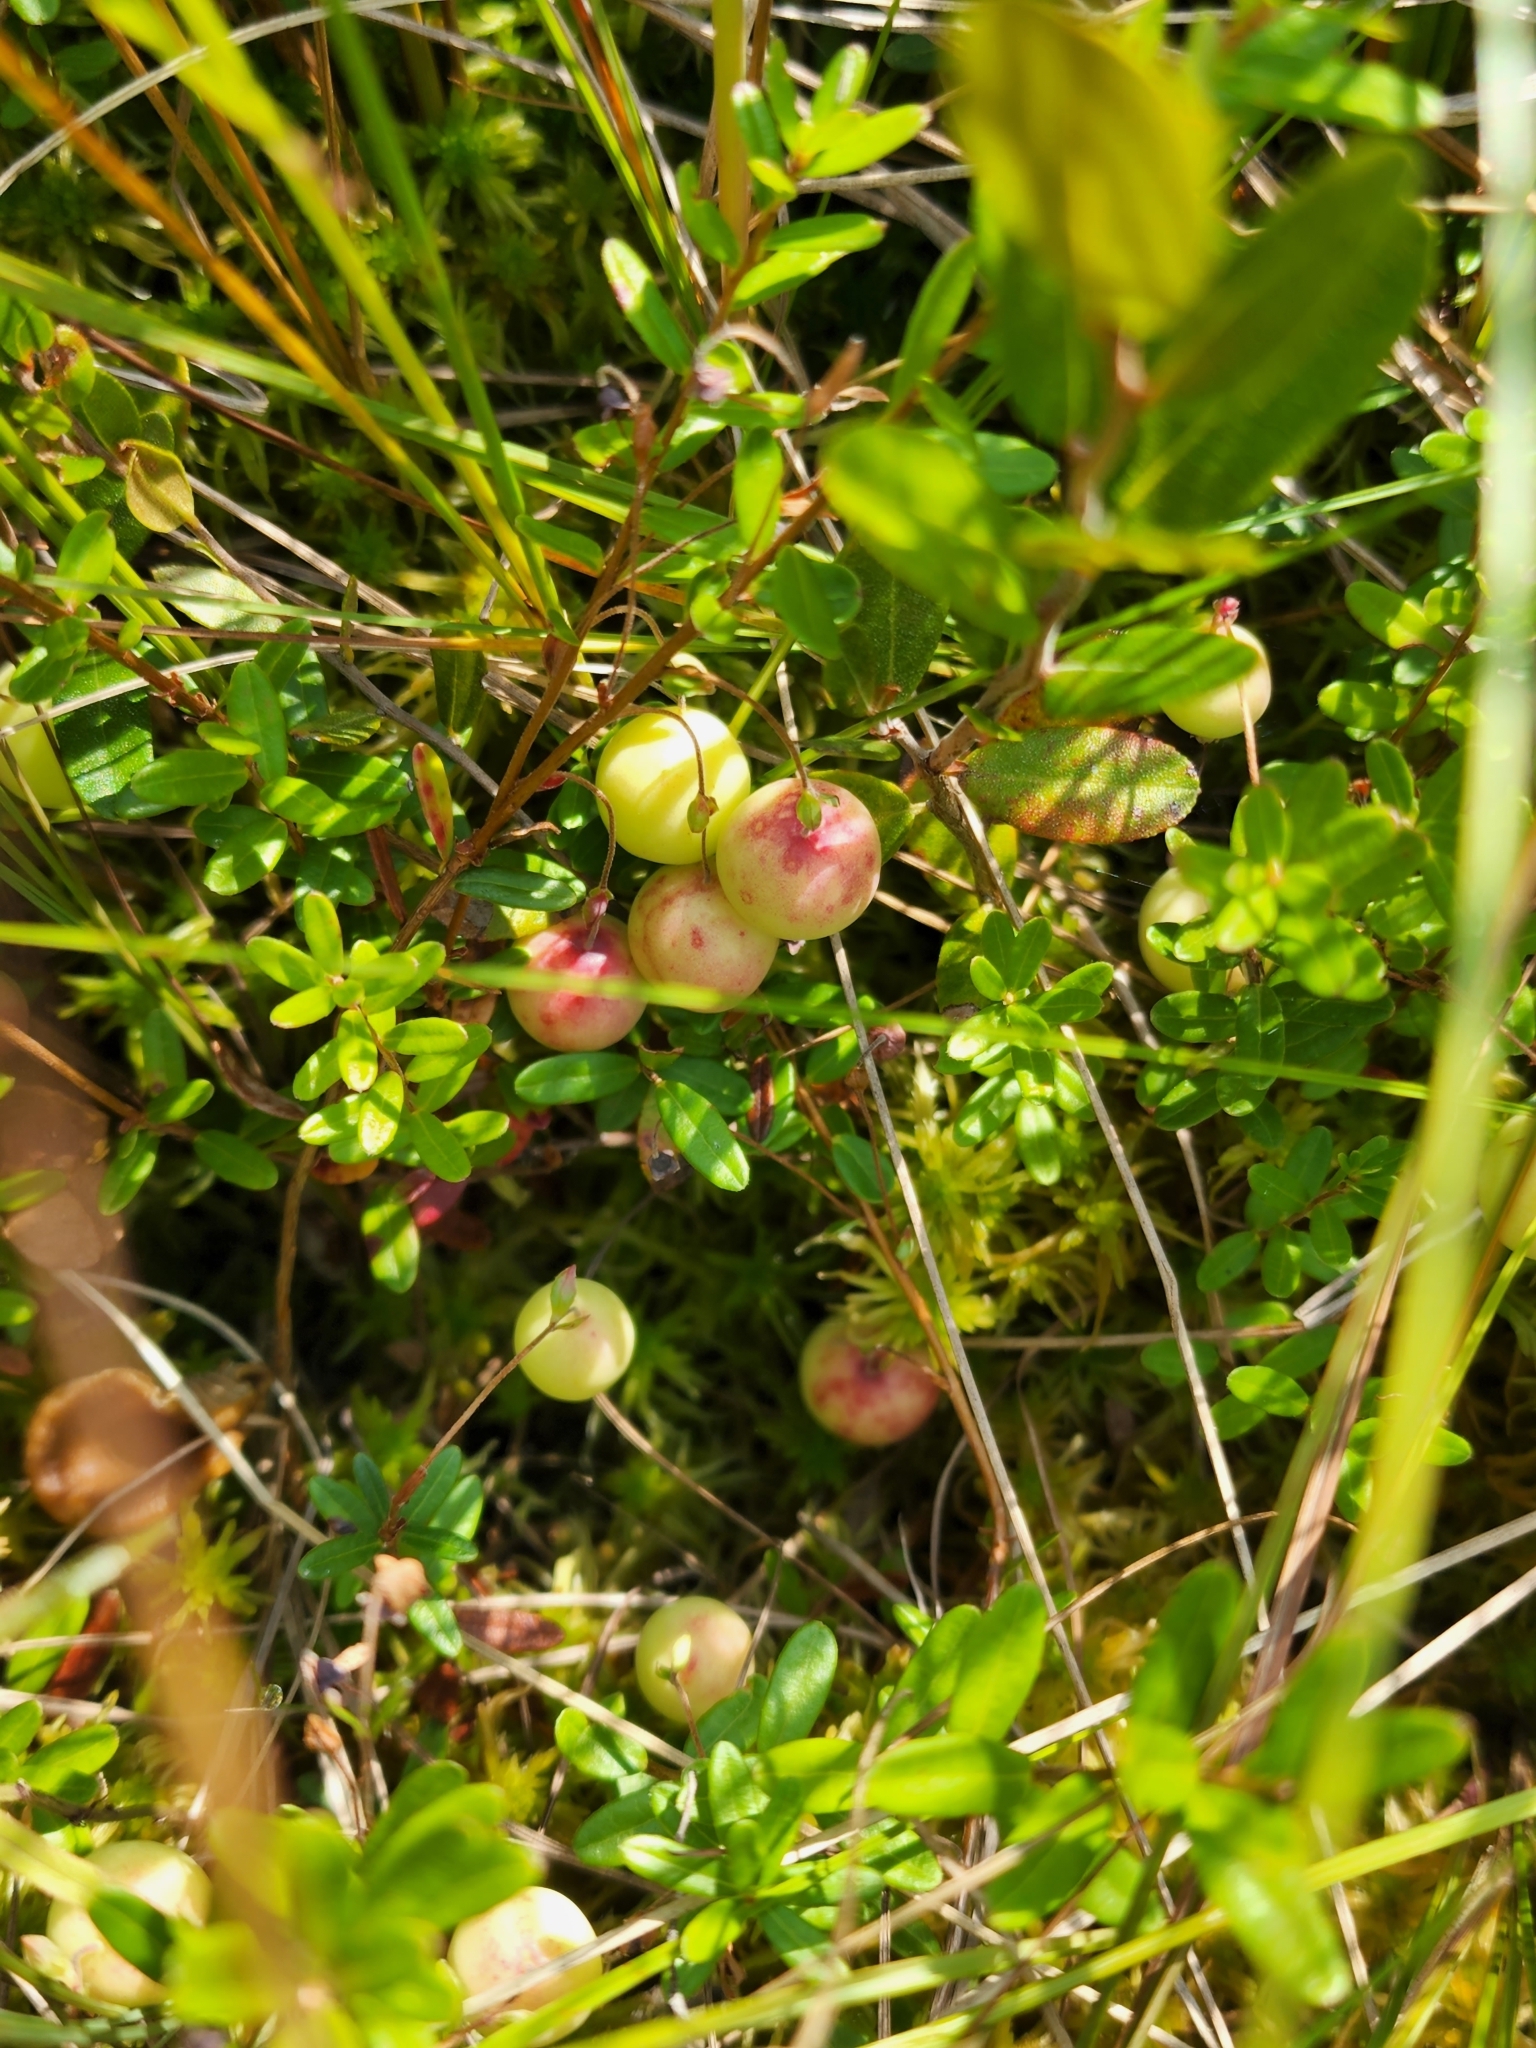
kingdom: Plantae
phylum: Tracheophyta
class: Magnoliopsida
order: Ericales
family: Ericaceae
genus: Vaccinium
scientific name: Vaccinium macrocarpon
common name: American cranberry
